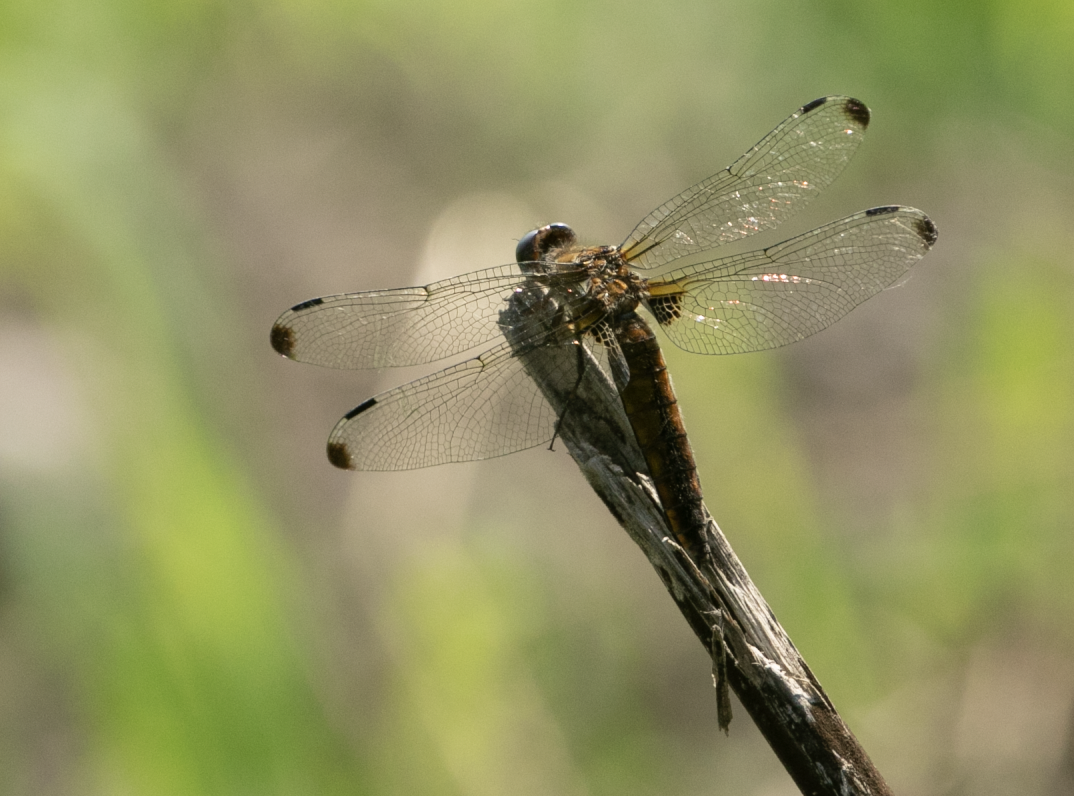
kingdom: Animalia
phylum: Arthropoda
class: Insecta
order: Odonata
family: Libellulidae
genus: Libellula
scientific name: Libellula fulva
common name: Blue chaser
